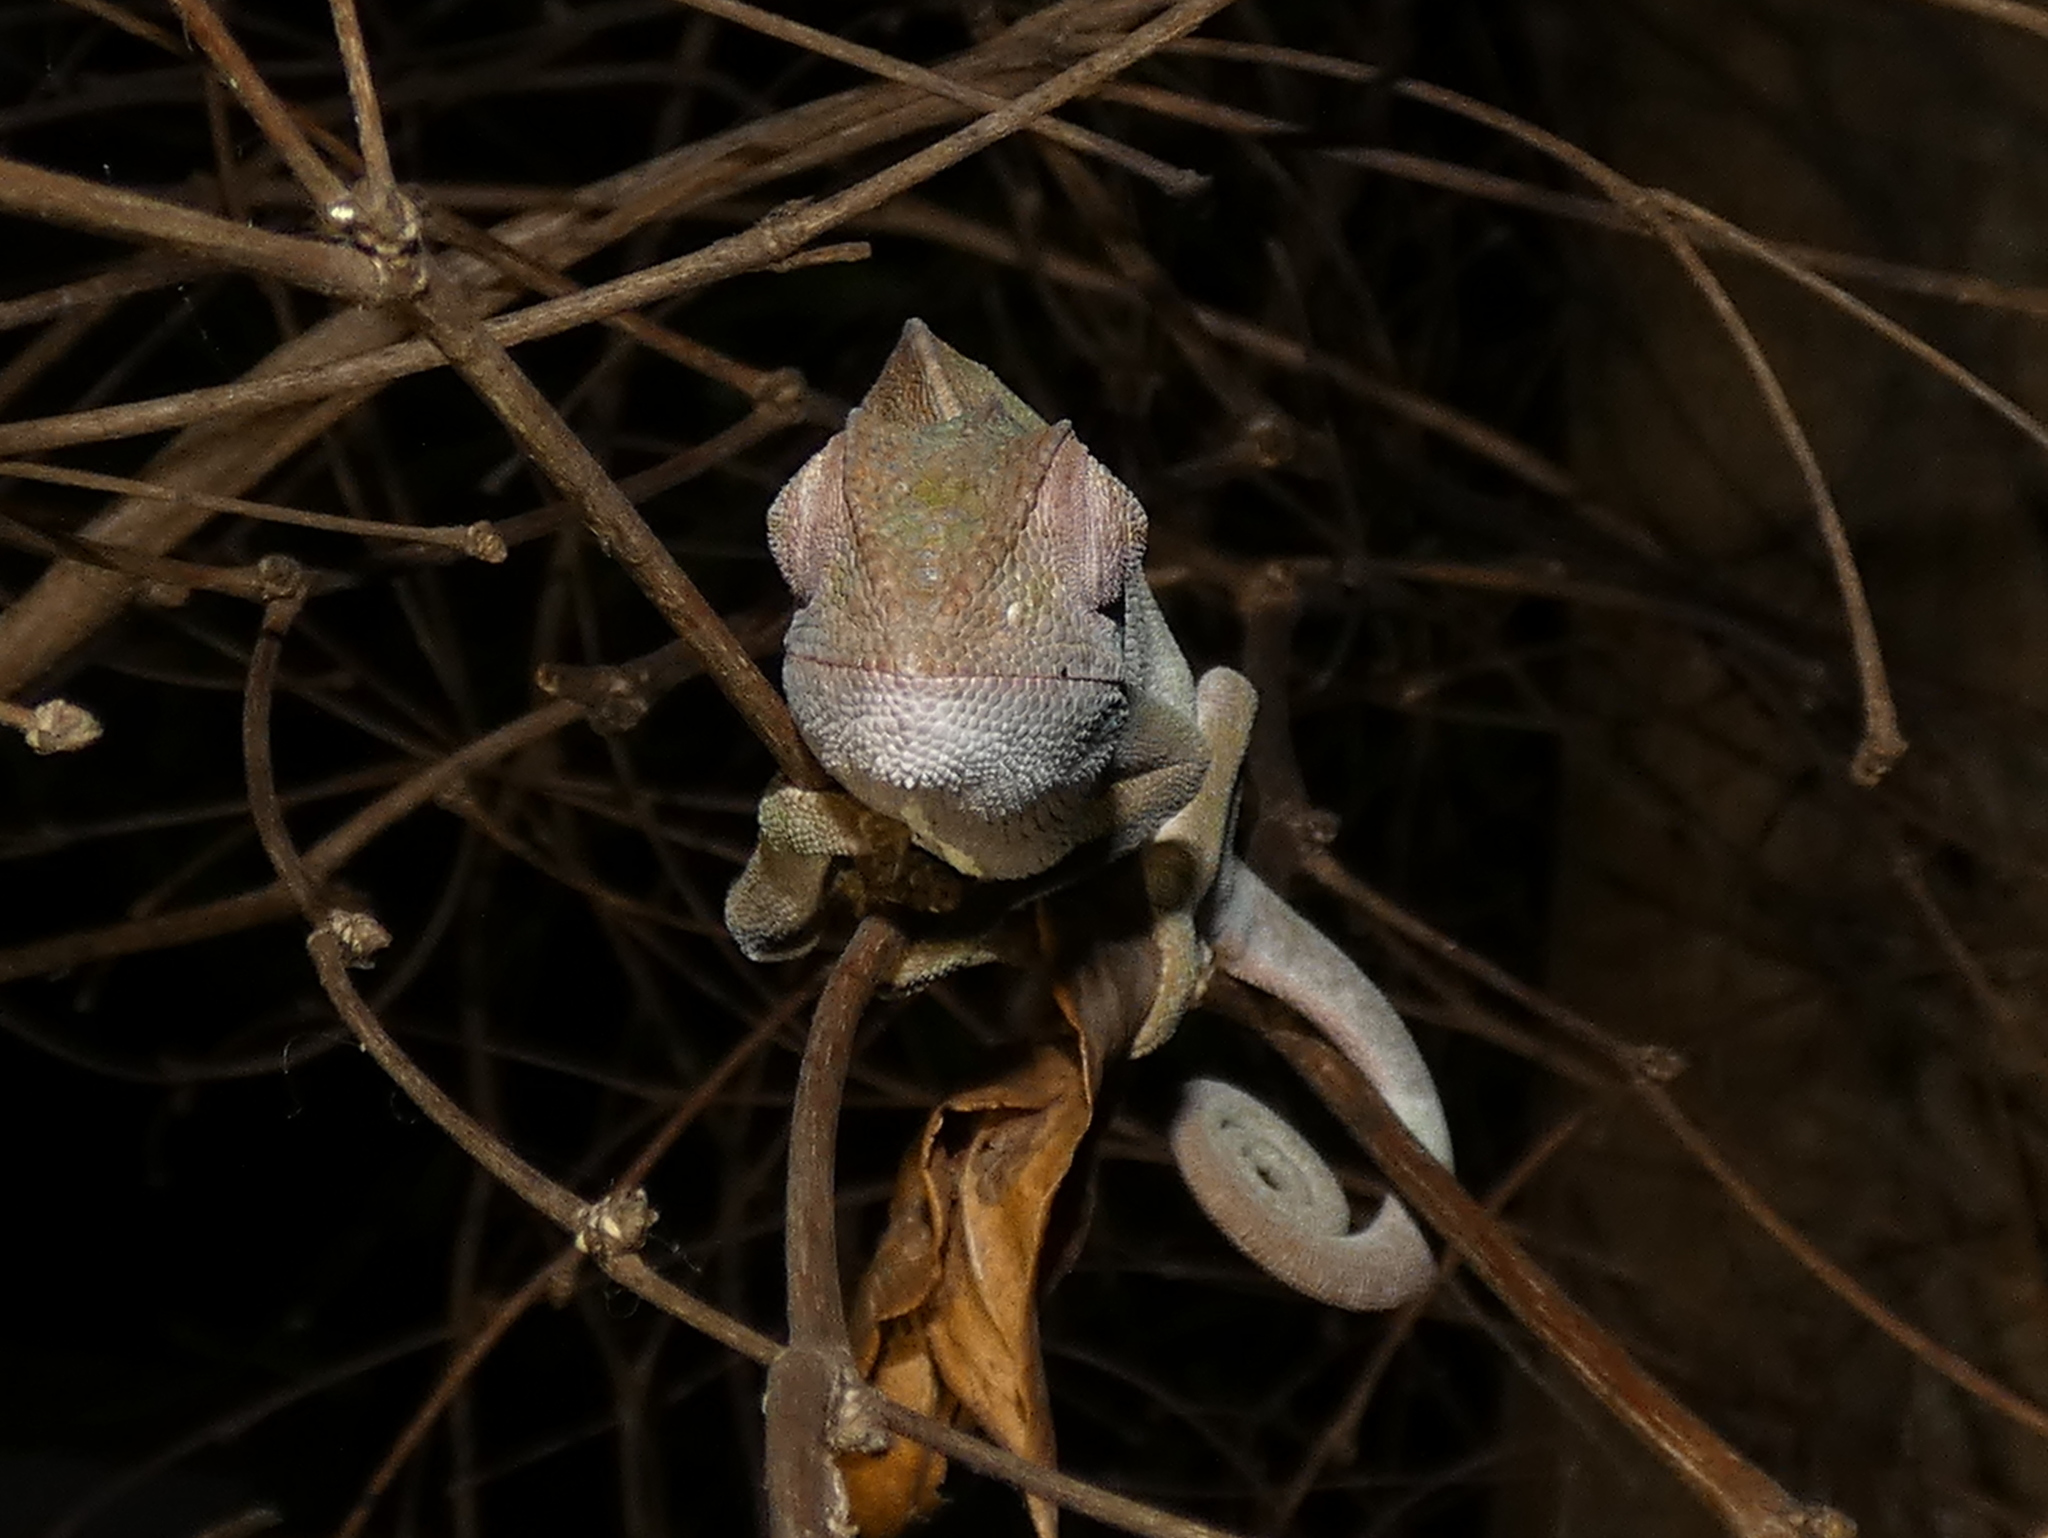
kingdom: Animalia
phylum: Chordata
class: Squamata
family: Chamaeleonidae
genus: Furcifer
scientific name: Furcifer oustaleti
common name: Oustalet's chameleon
